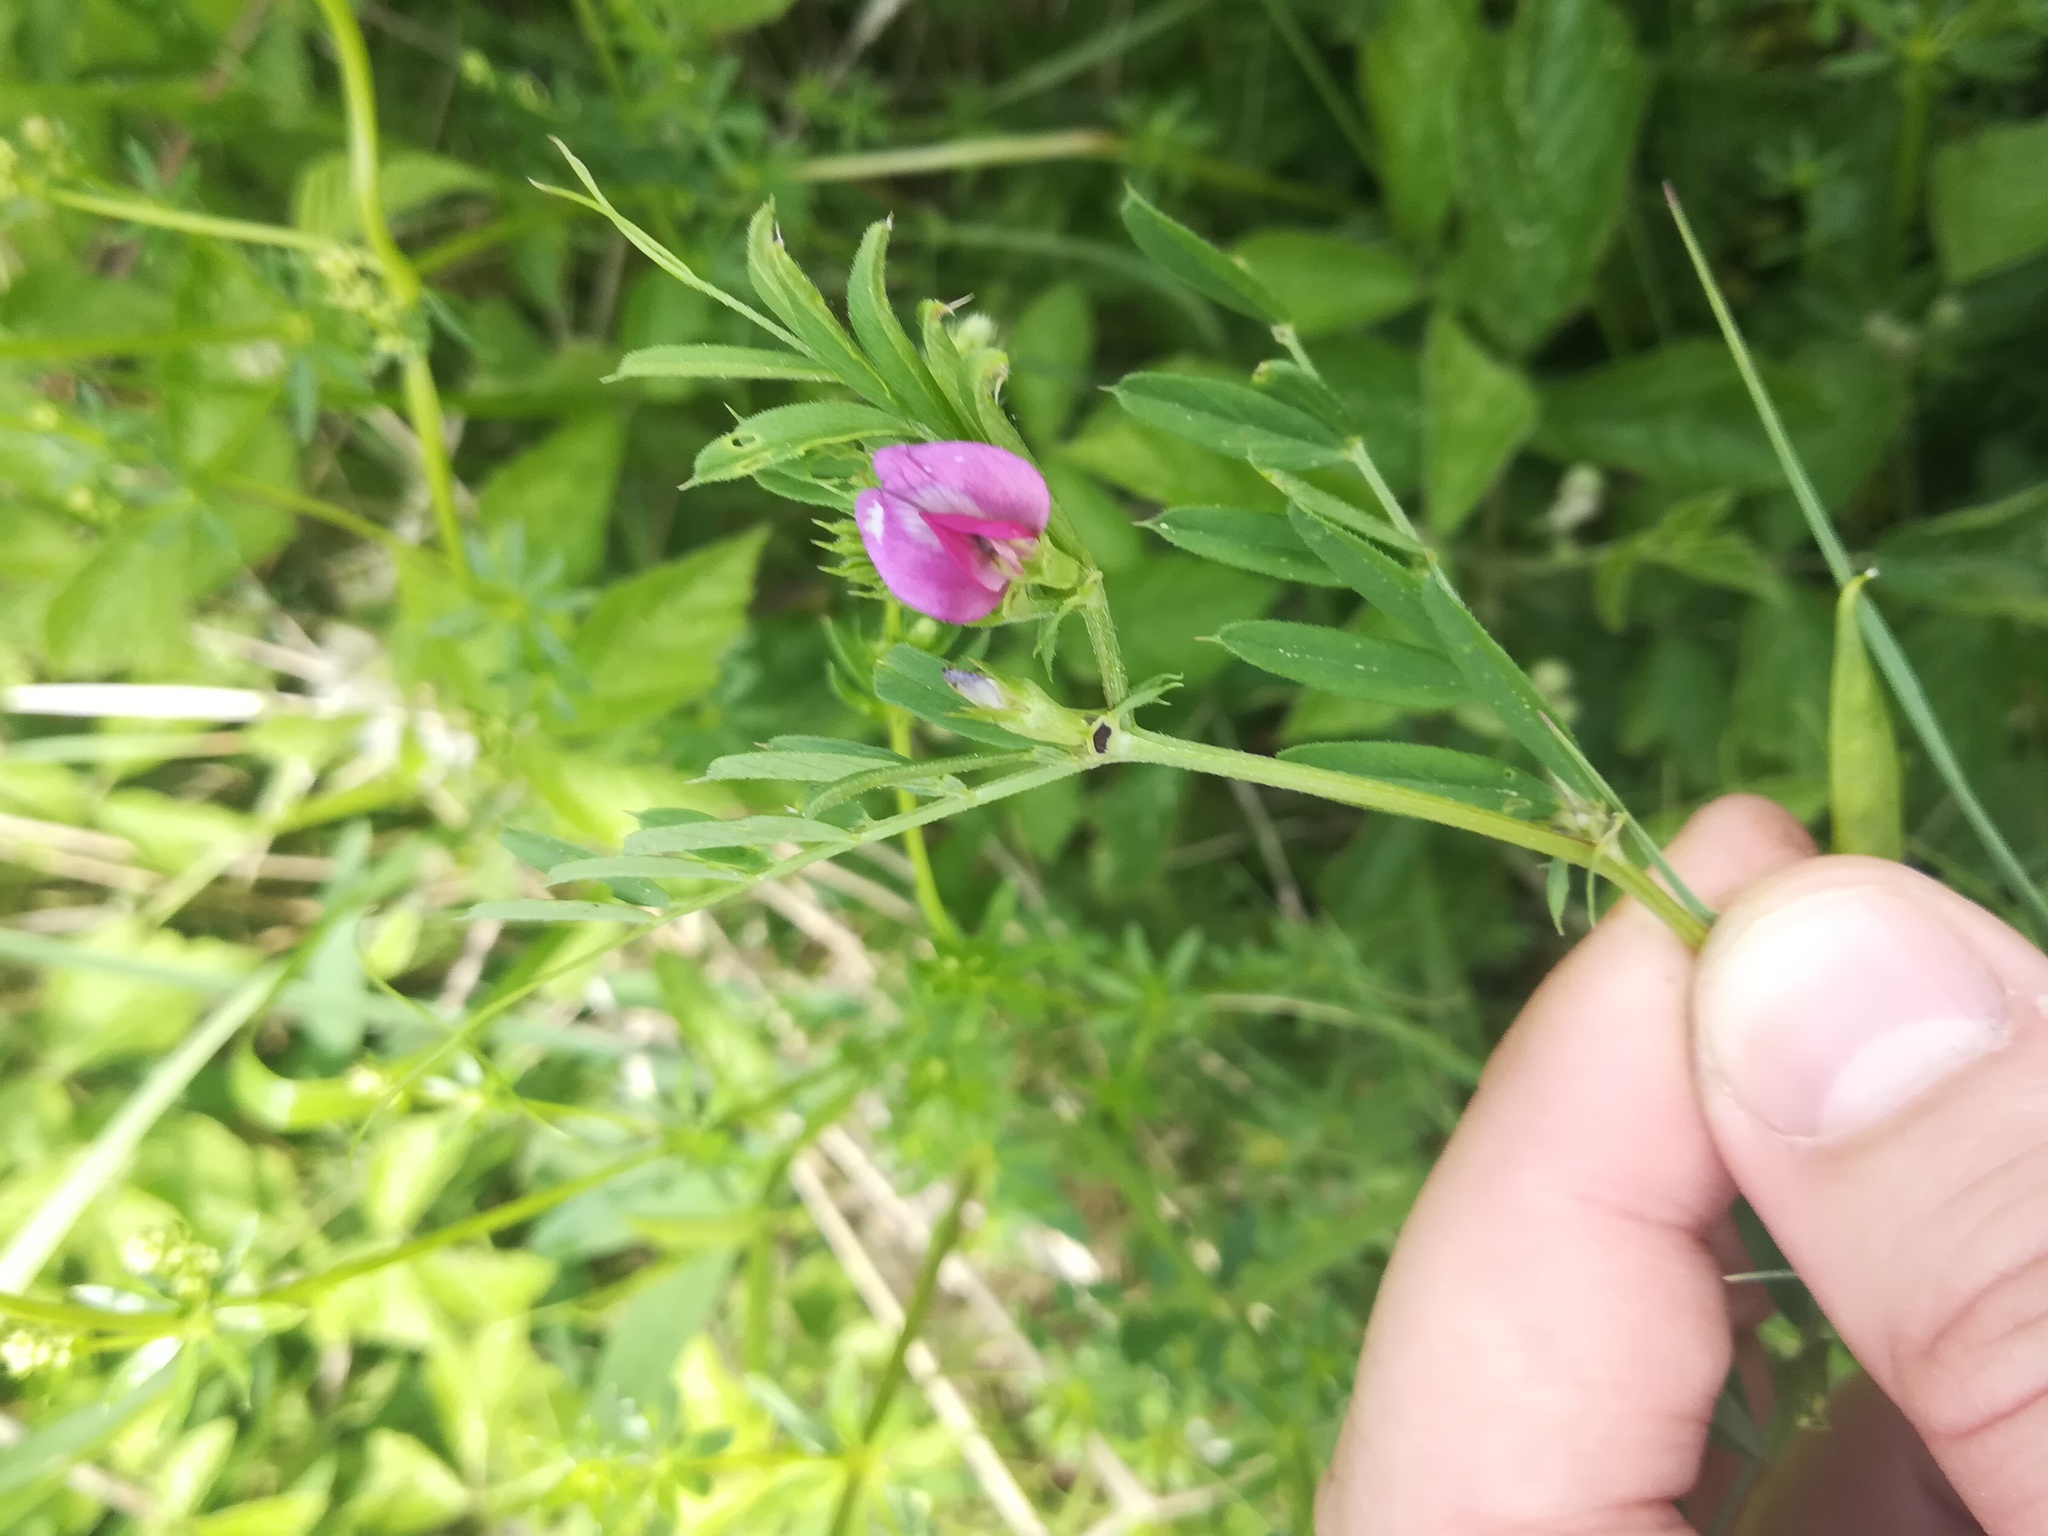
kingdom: Plantae
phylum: Tracheophyta
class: Magnoliopsida
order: Fabales
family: Fabaceae
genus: Vicia
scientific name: Vicia sativa
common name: Garden vetch
